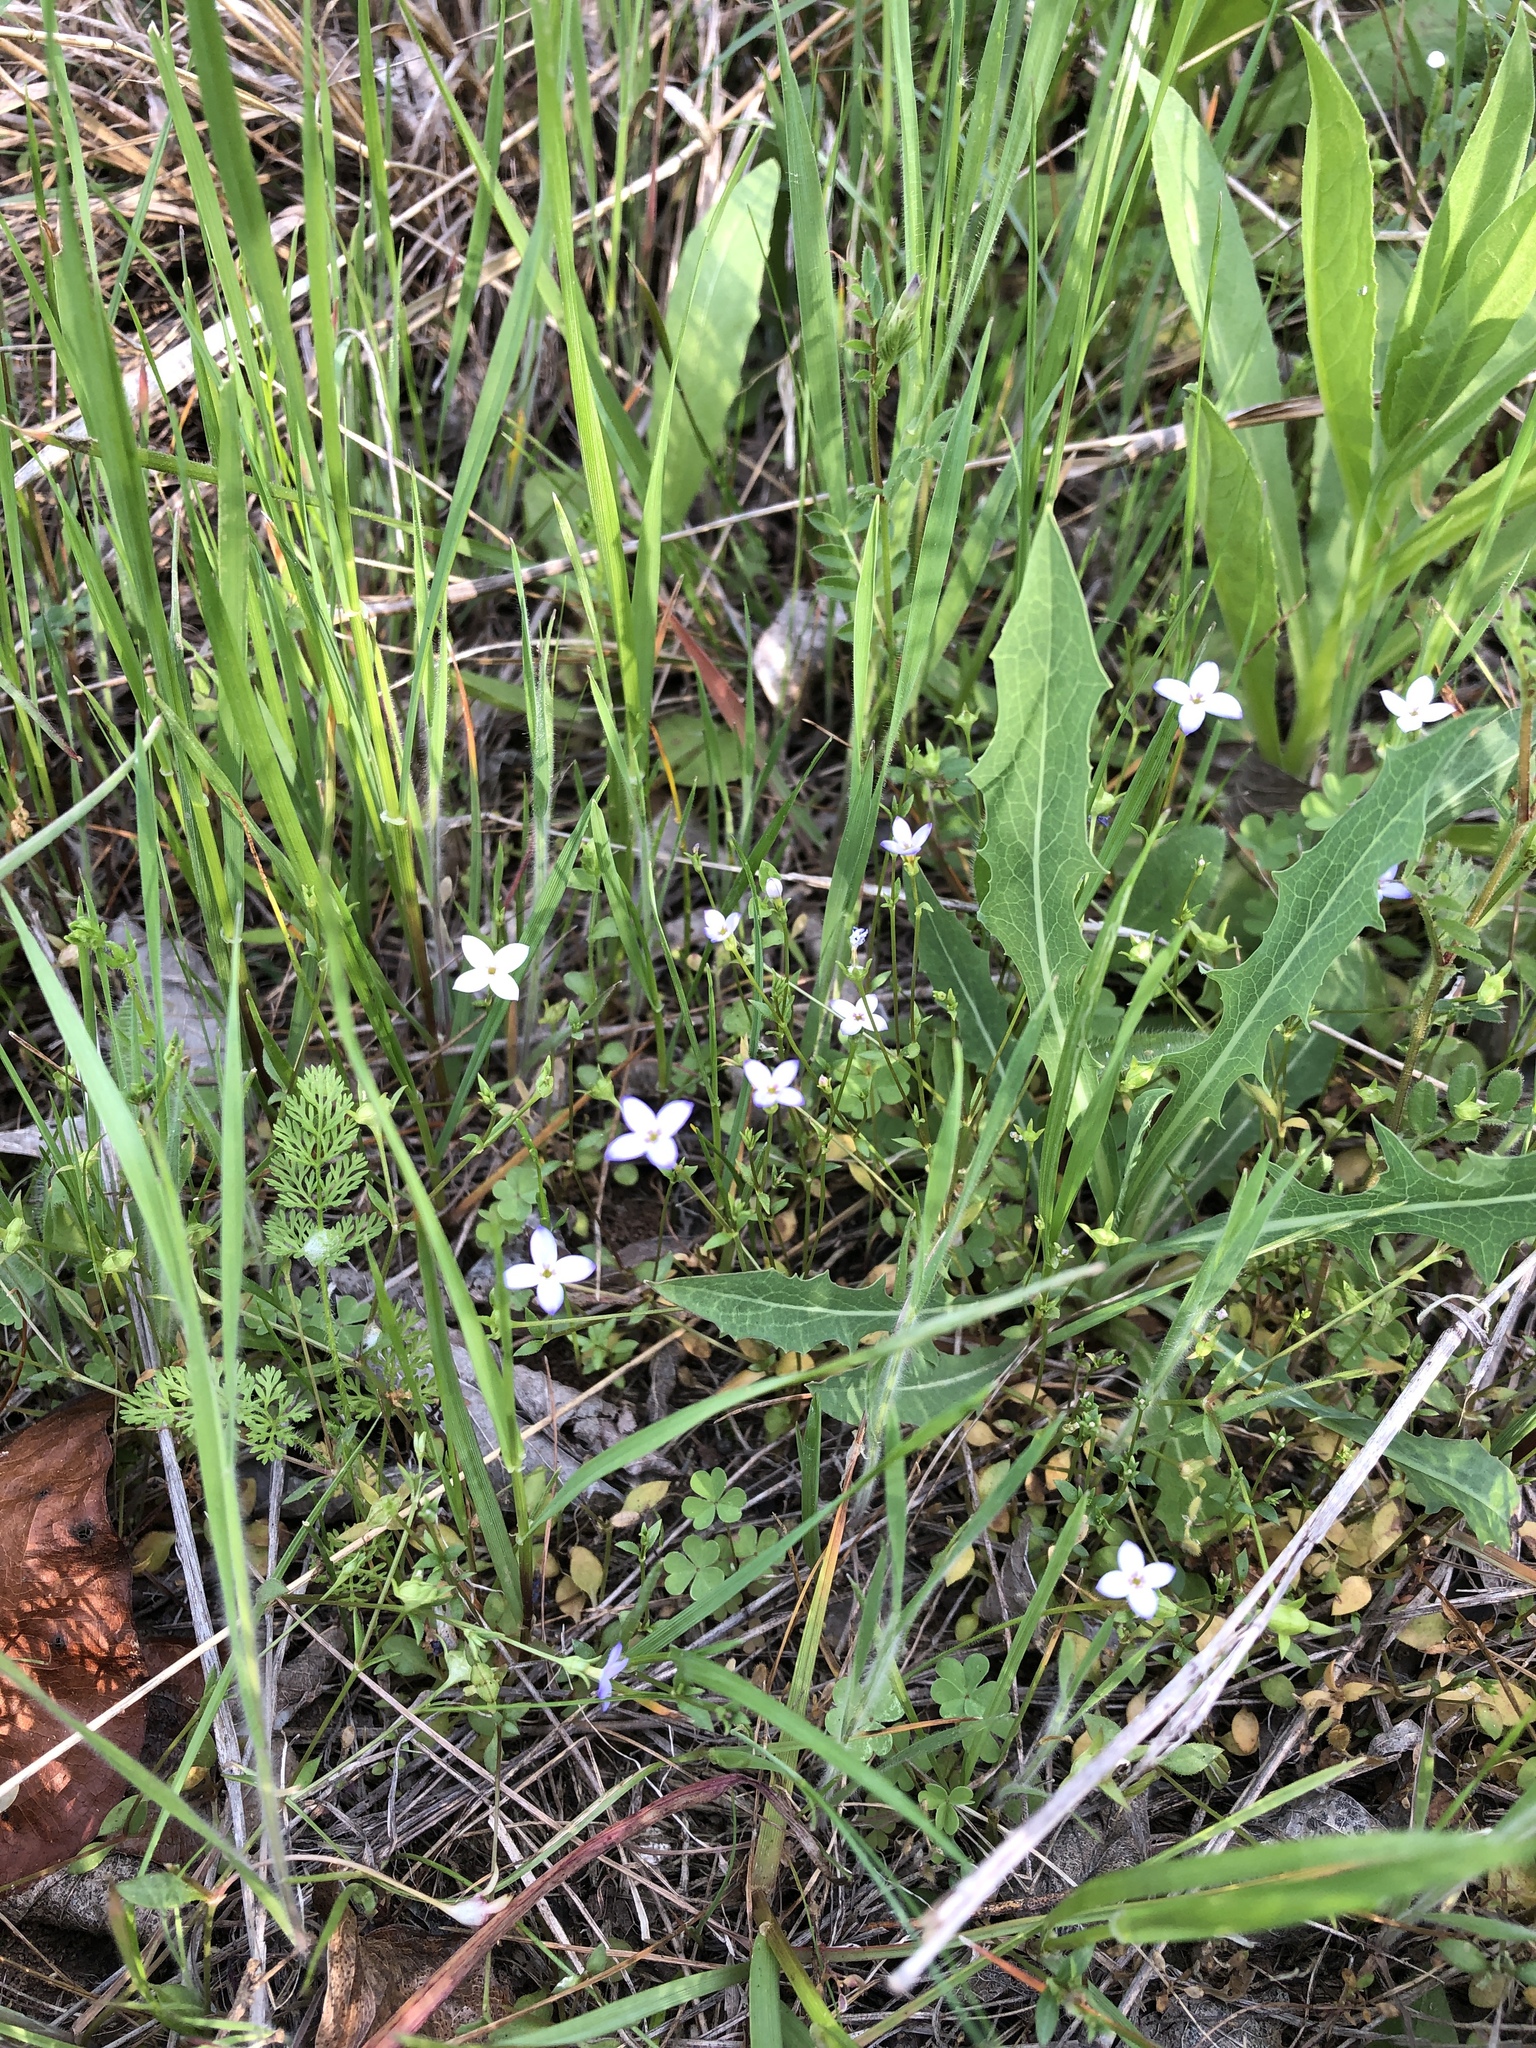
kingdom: Plantae
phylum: Tracheophyta
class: Magnoliopsida
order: Gentianales
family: Rubiaceae
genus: Houstonia
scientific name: Houstonia pusilla
